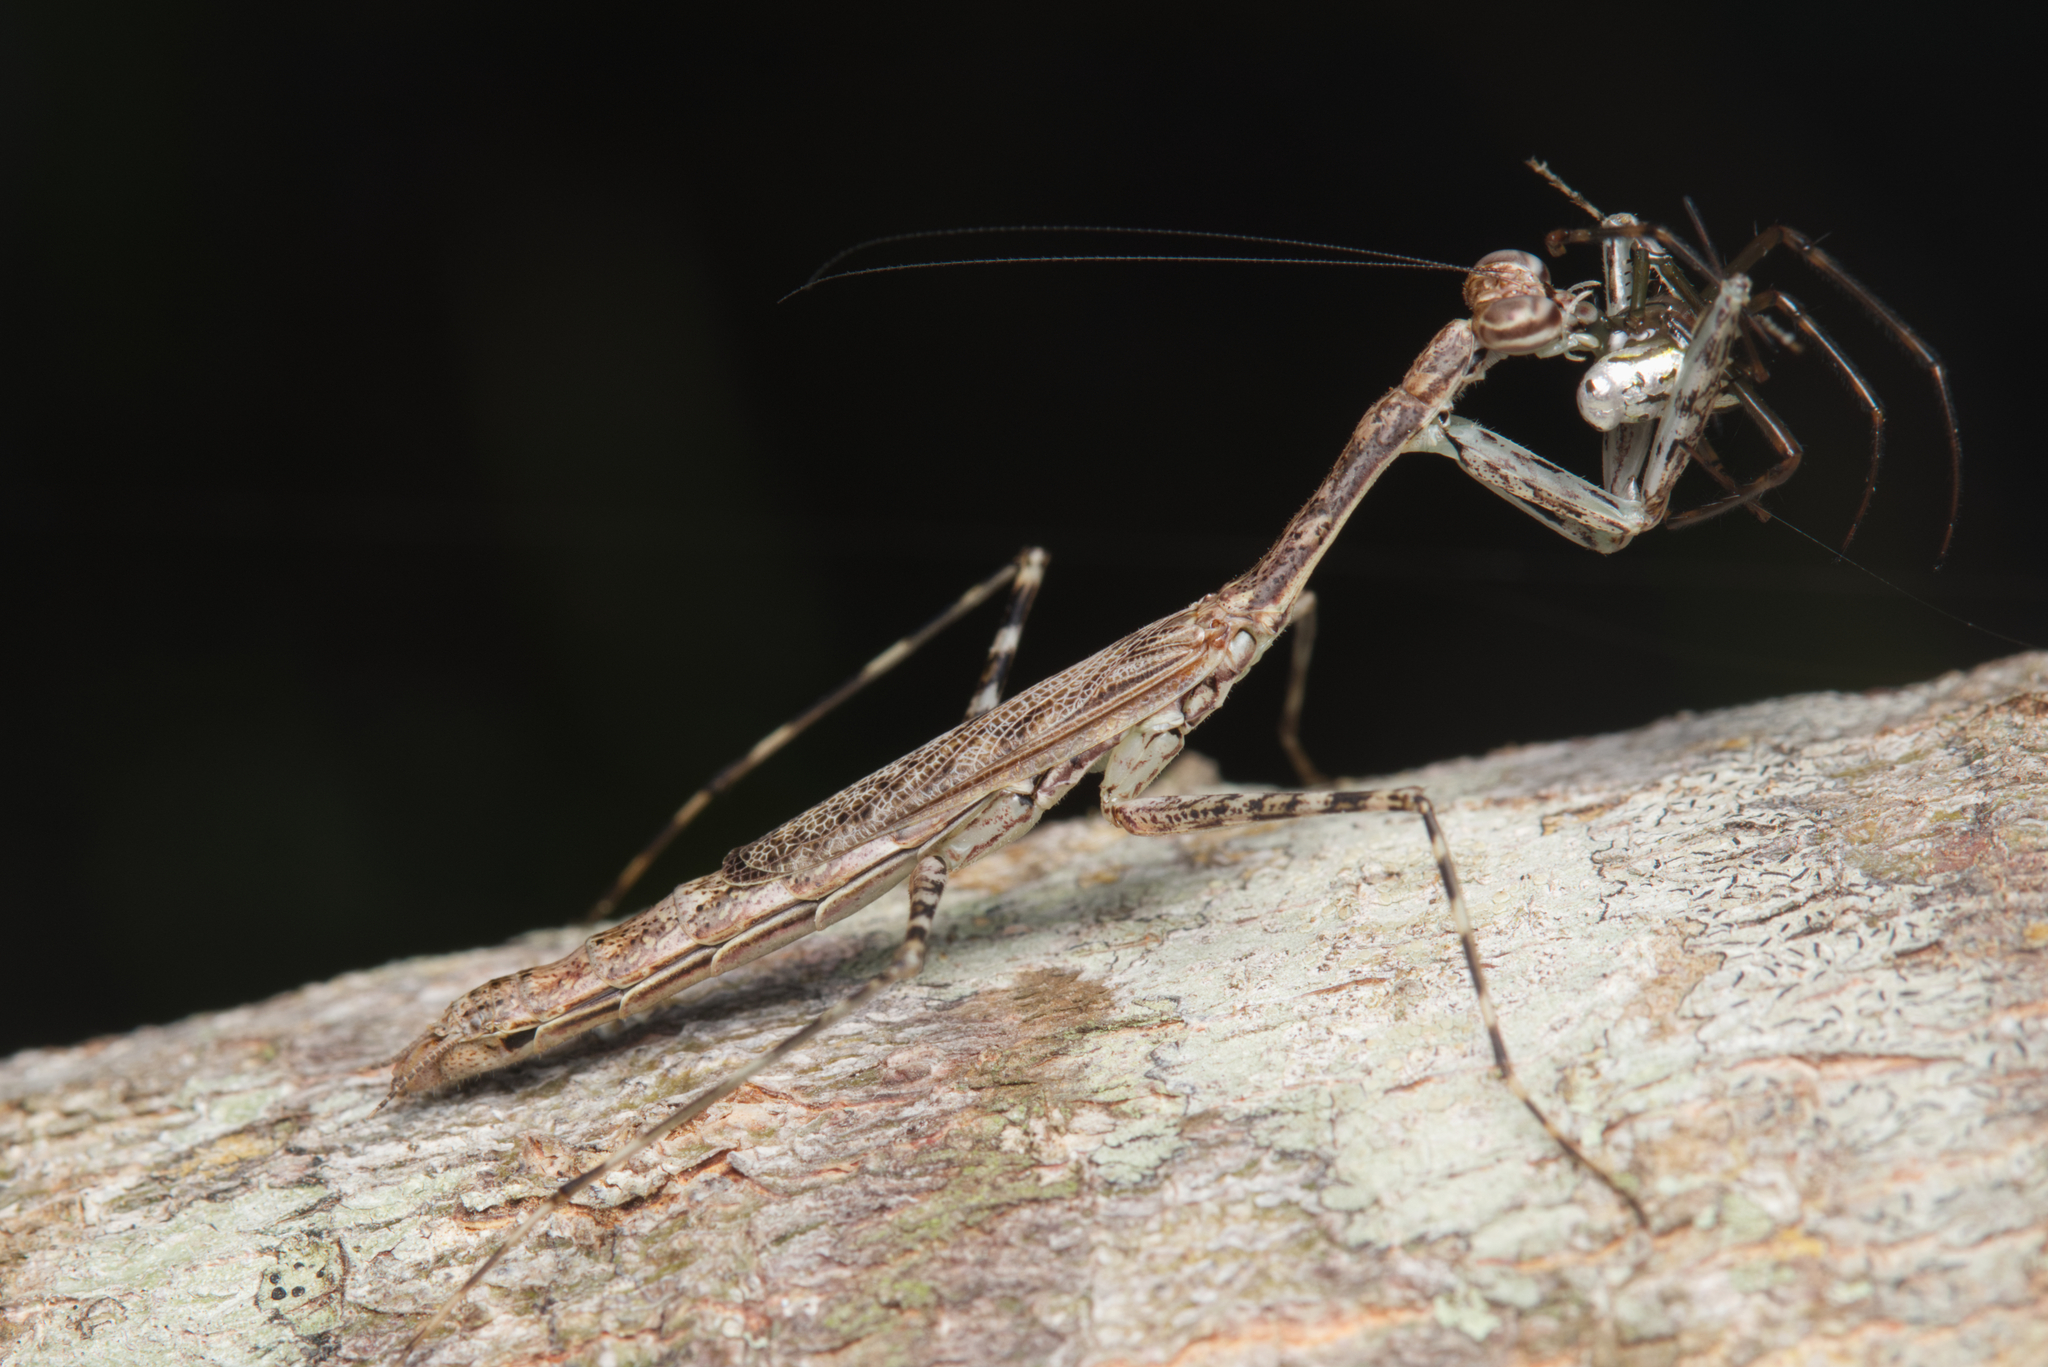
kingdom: Animalia
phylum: Arthropoda
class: Insecta
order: Mantodea
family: Nanomantidae
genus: Ciulfina
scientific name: Ciulfina baldersoni
